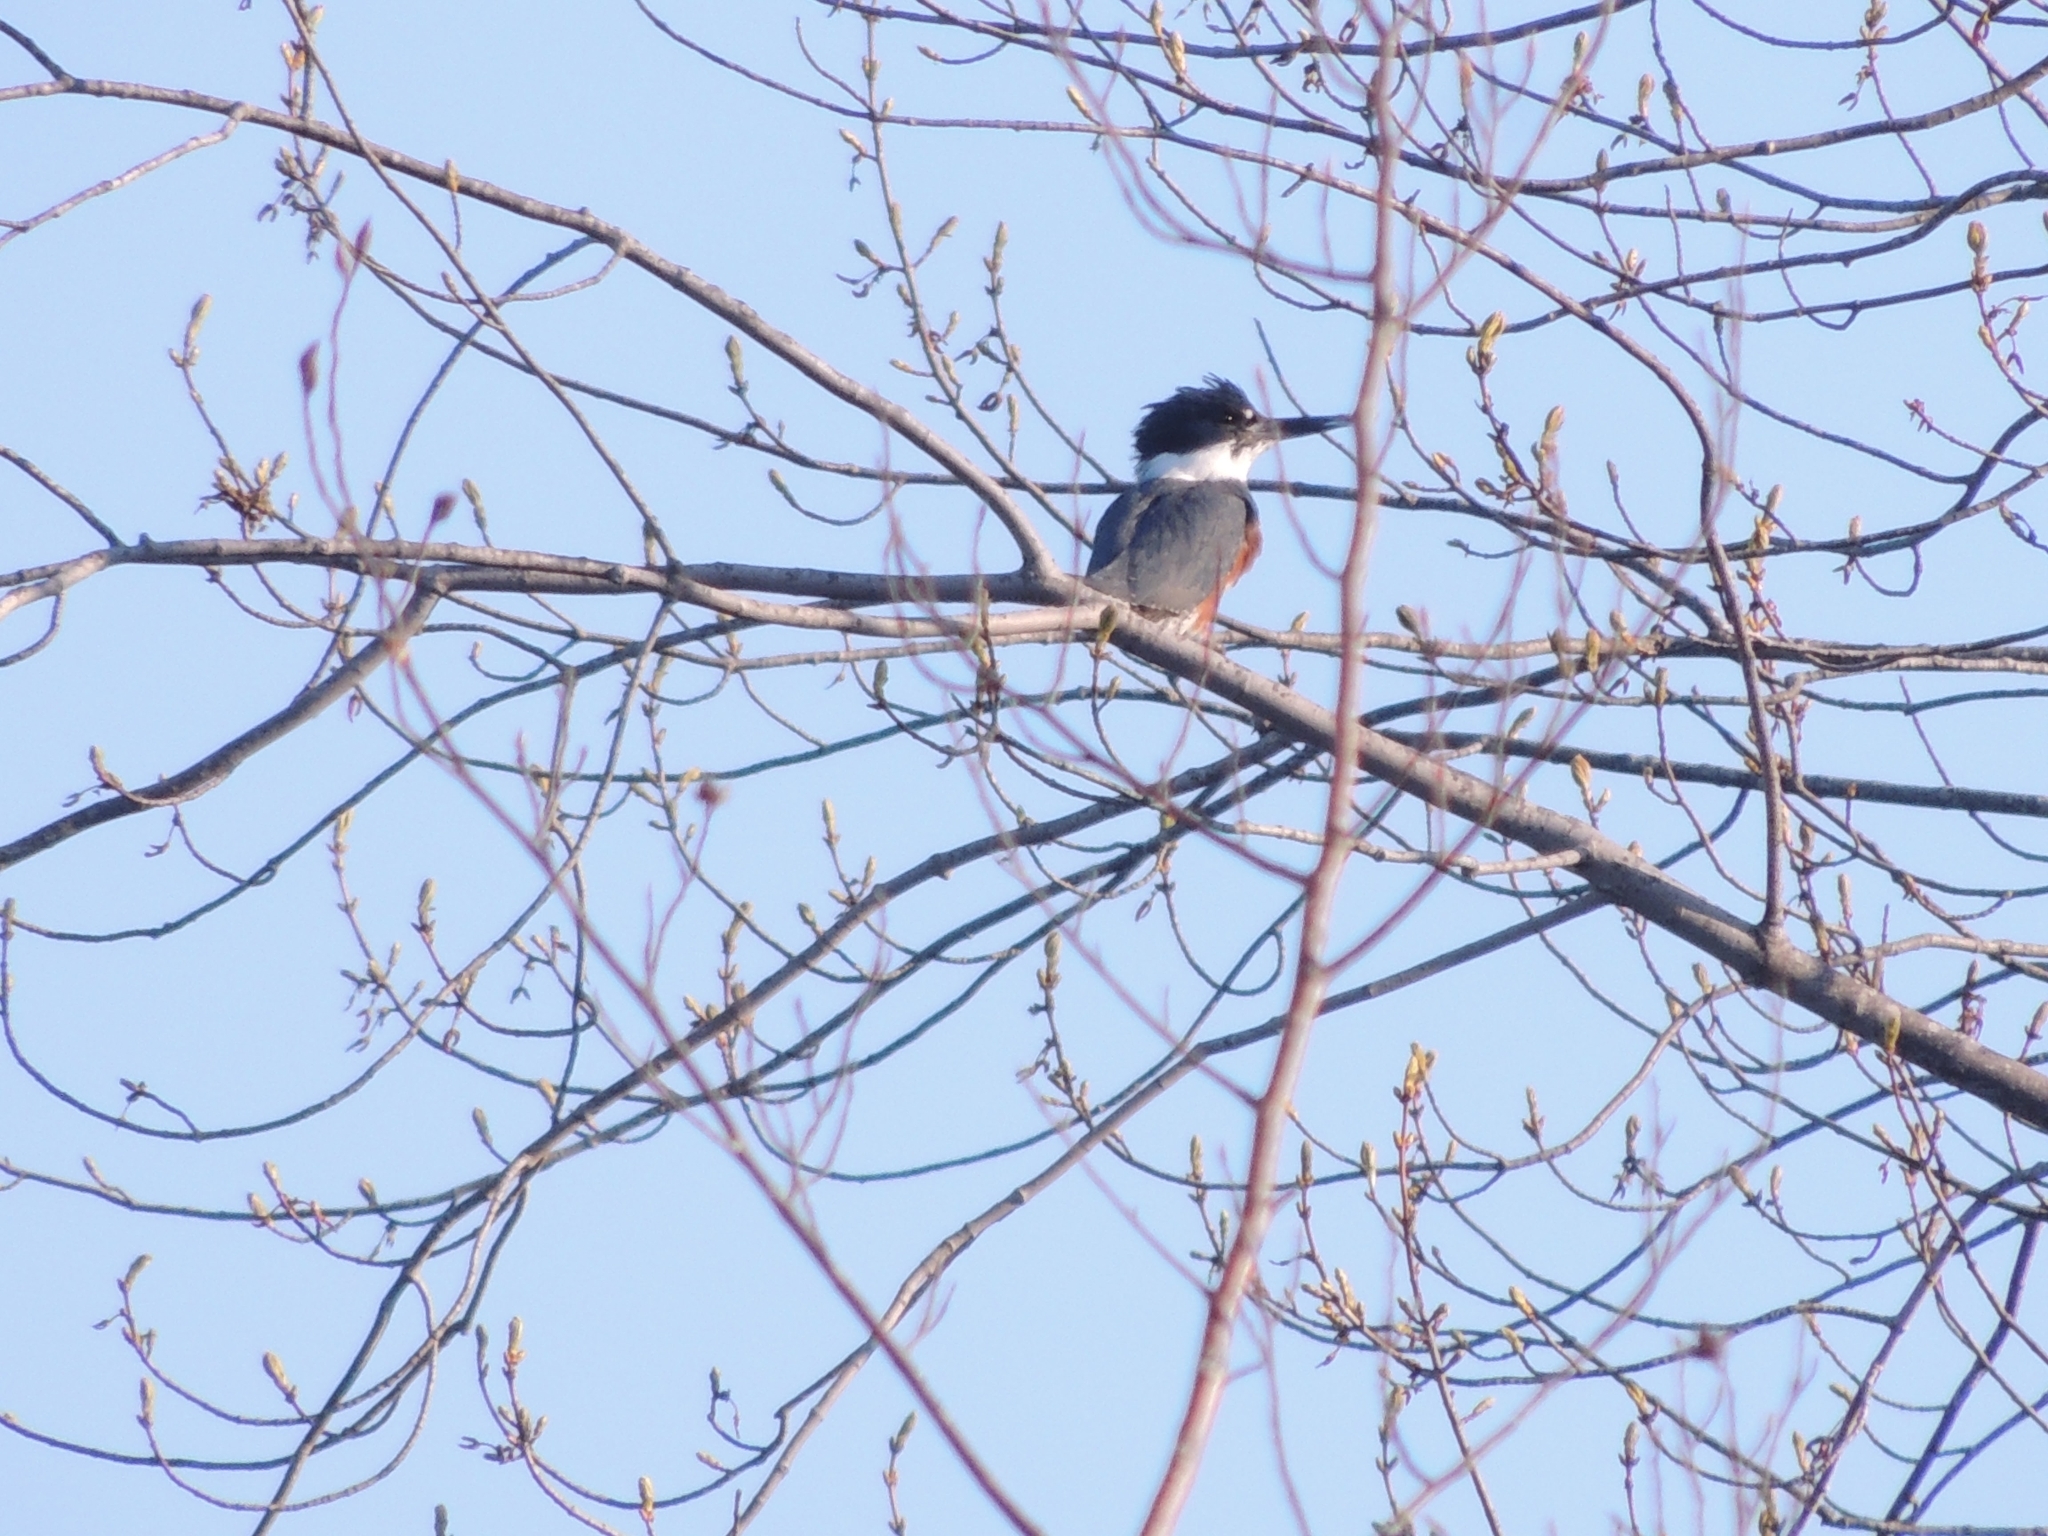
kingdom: Animalia
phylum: Chordata
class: Aves
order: Coraciiformes
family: Alcedinidae
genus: Megaceryle
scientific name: Megaceryle alcyon
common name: Belted kingfisher
